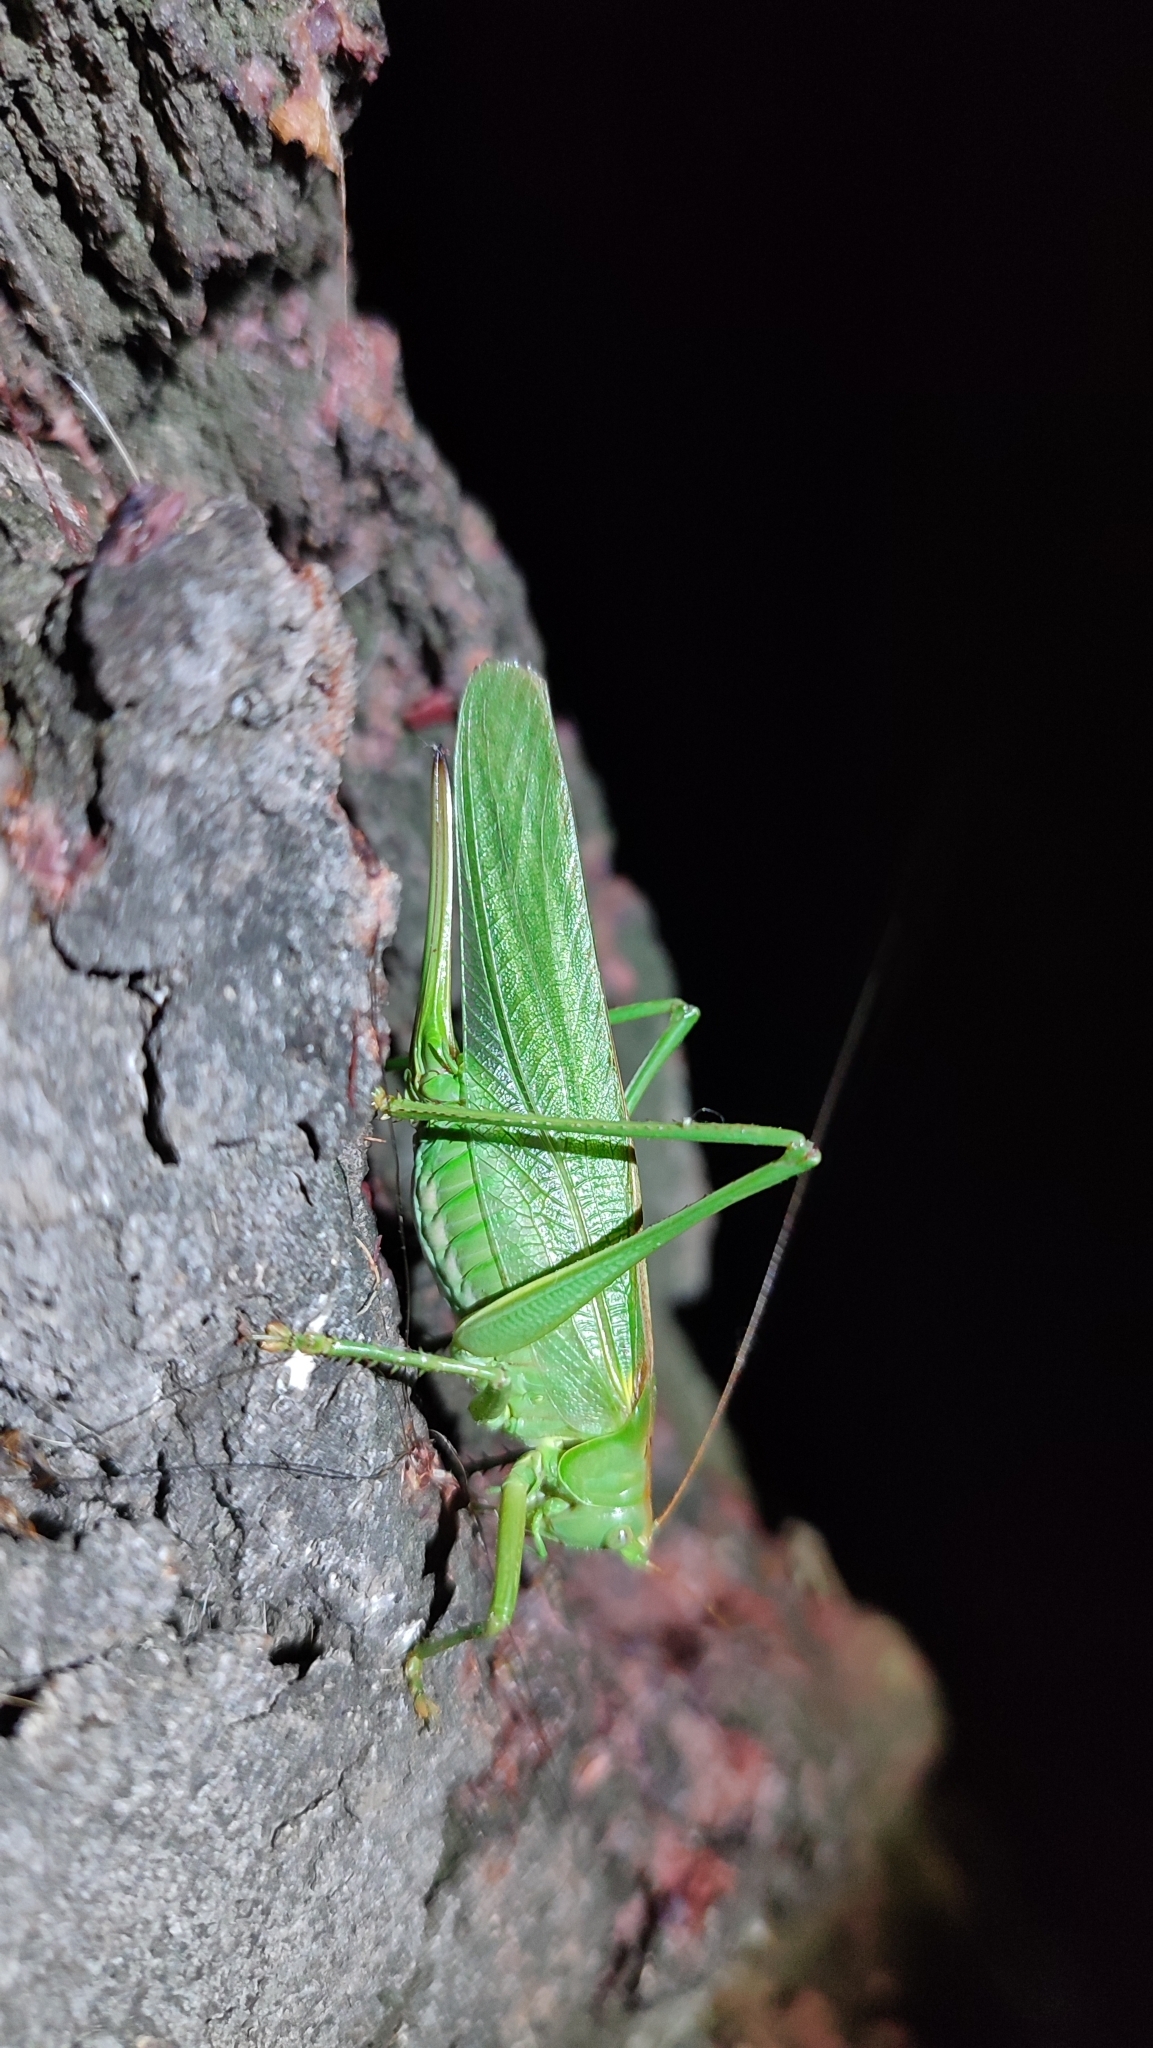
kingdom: Animalia
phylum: Arthropoda
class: Insecta
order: Orthoptera
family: Tettigoniidae
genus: Tettigonia
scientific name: Tettigonia viridissima
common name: Great green bush-cricket
